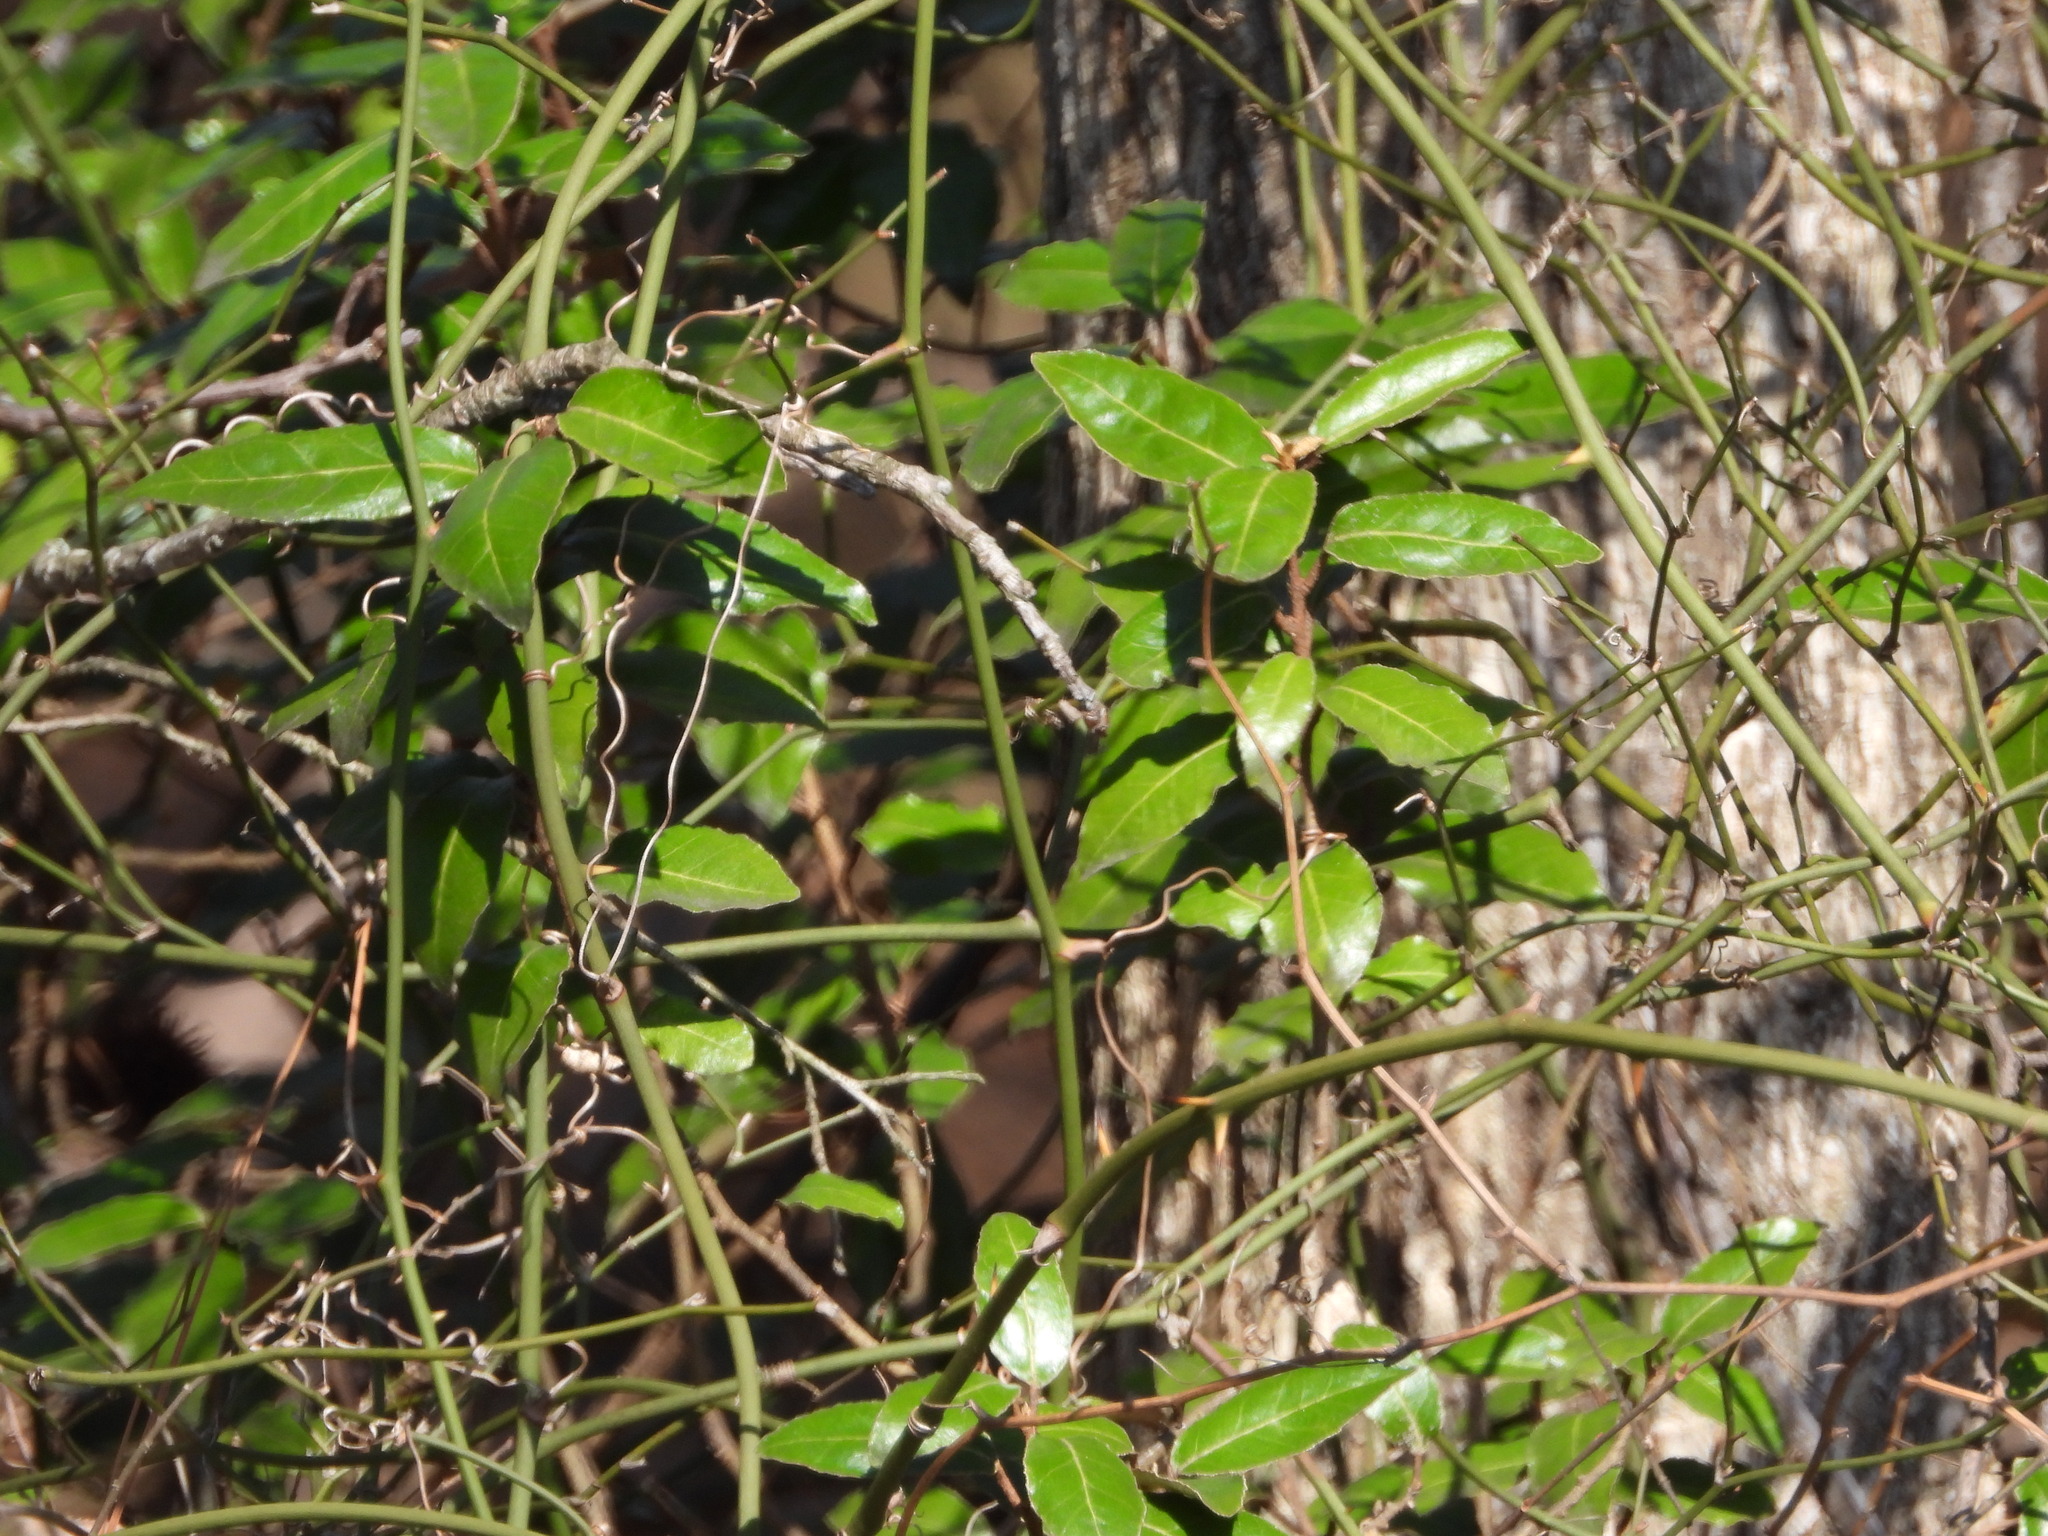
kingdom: Plantae
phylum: Tracheophyta
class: Magnoliopsida
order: Rosales
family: Elaeagnaceae
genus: Elaeagnus
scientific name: Elaeagnus pungens
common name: Spiny oleaster
